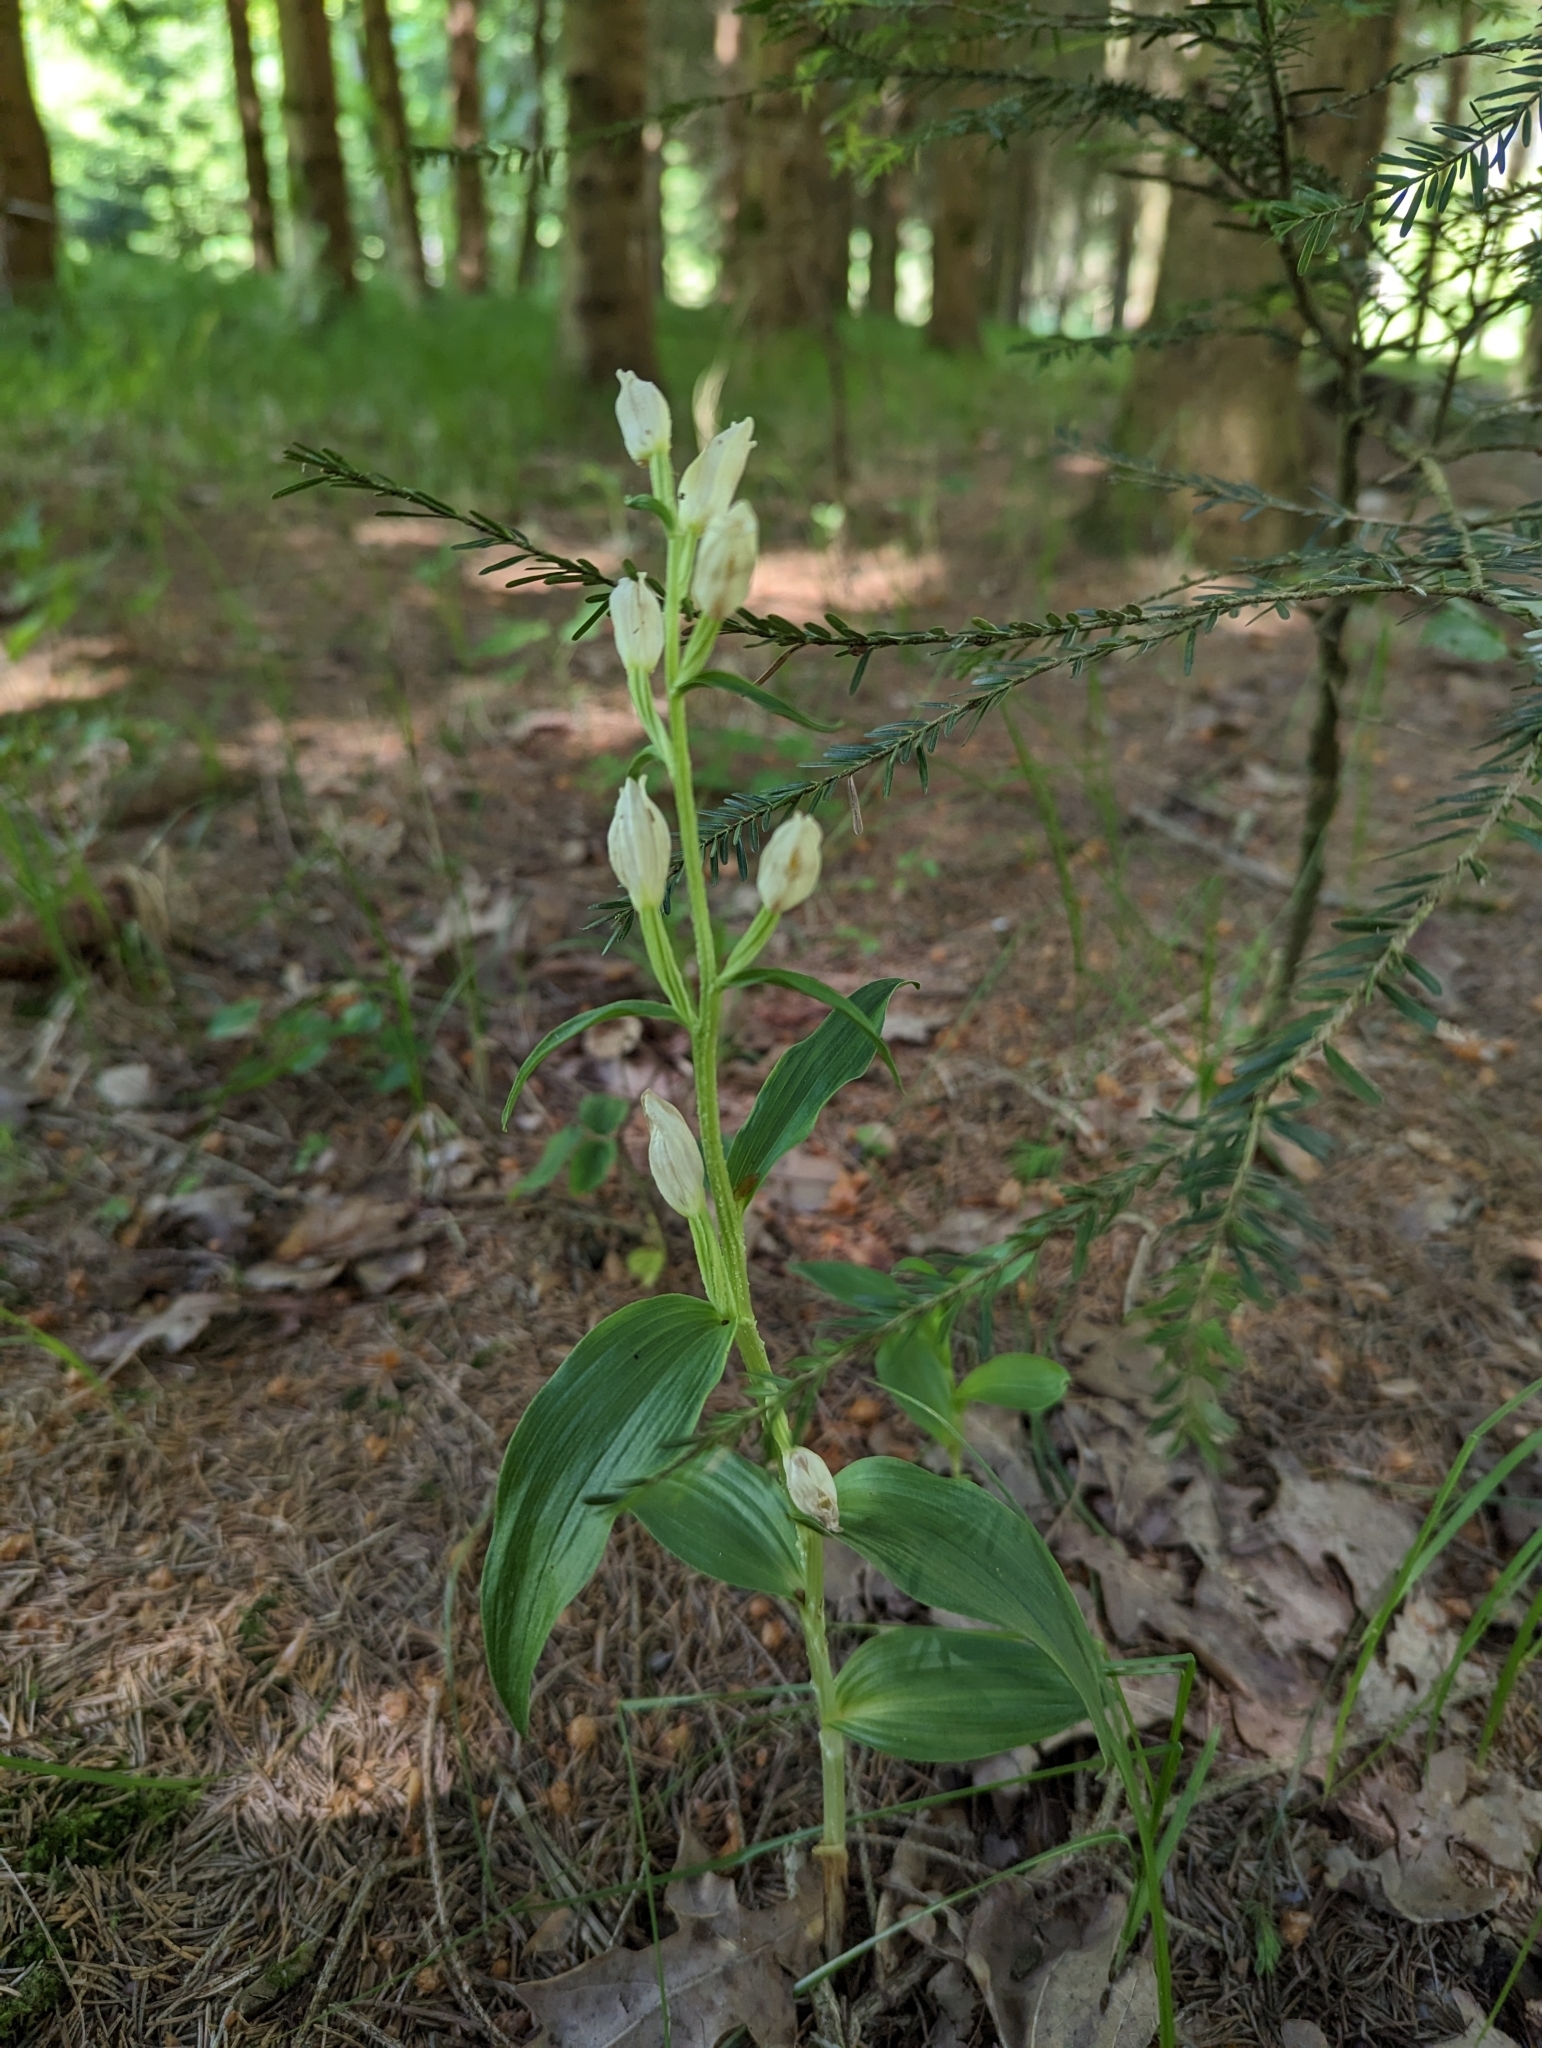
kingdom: Plantae
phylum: Tracheophyta
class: Liliopsida
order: Asparagales
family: Orchidaceae
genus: Cephalanthera
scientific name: Cephalanthera damasonium
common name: White helleborine
